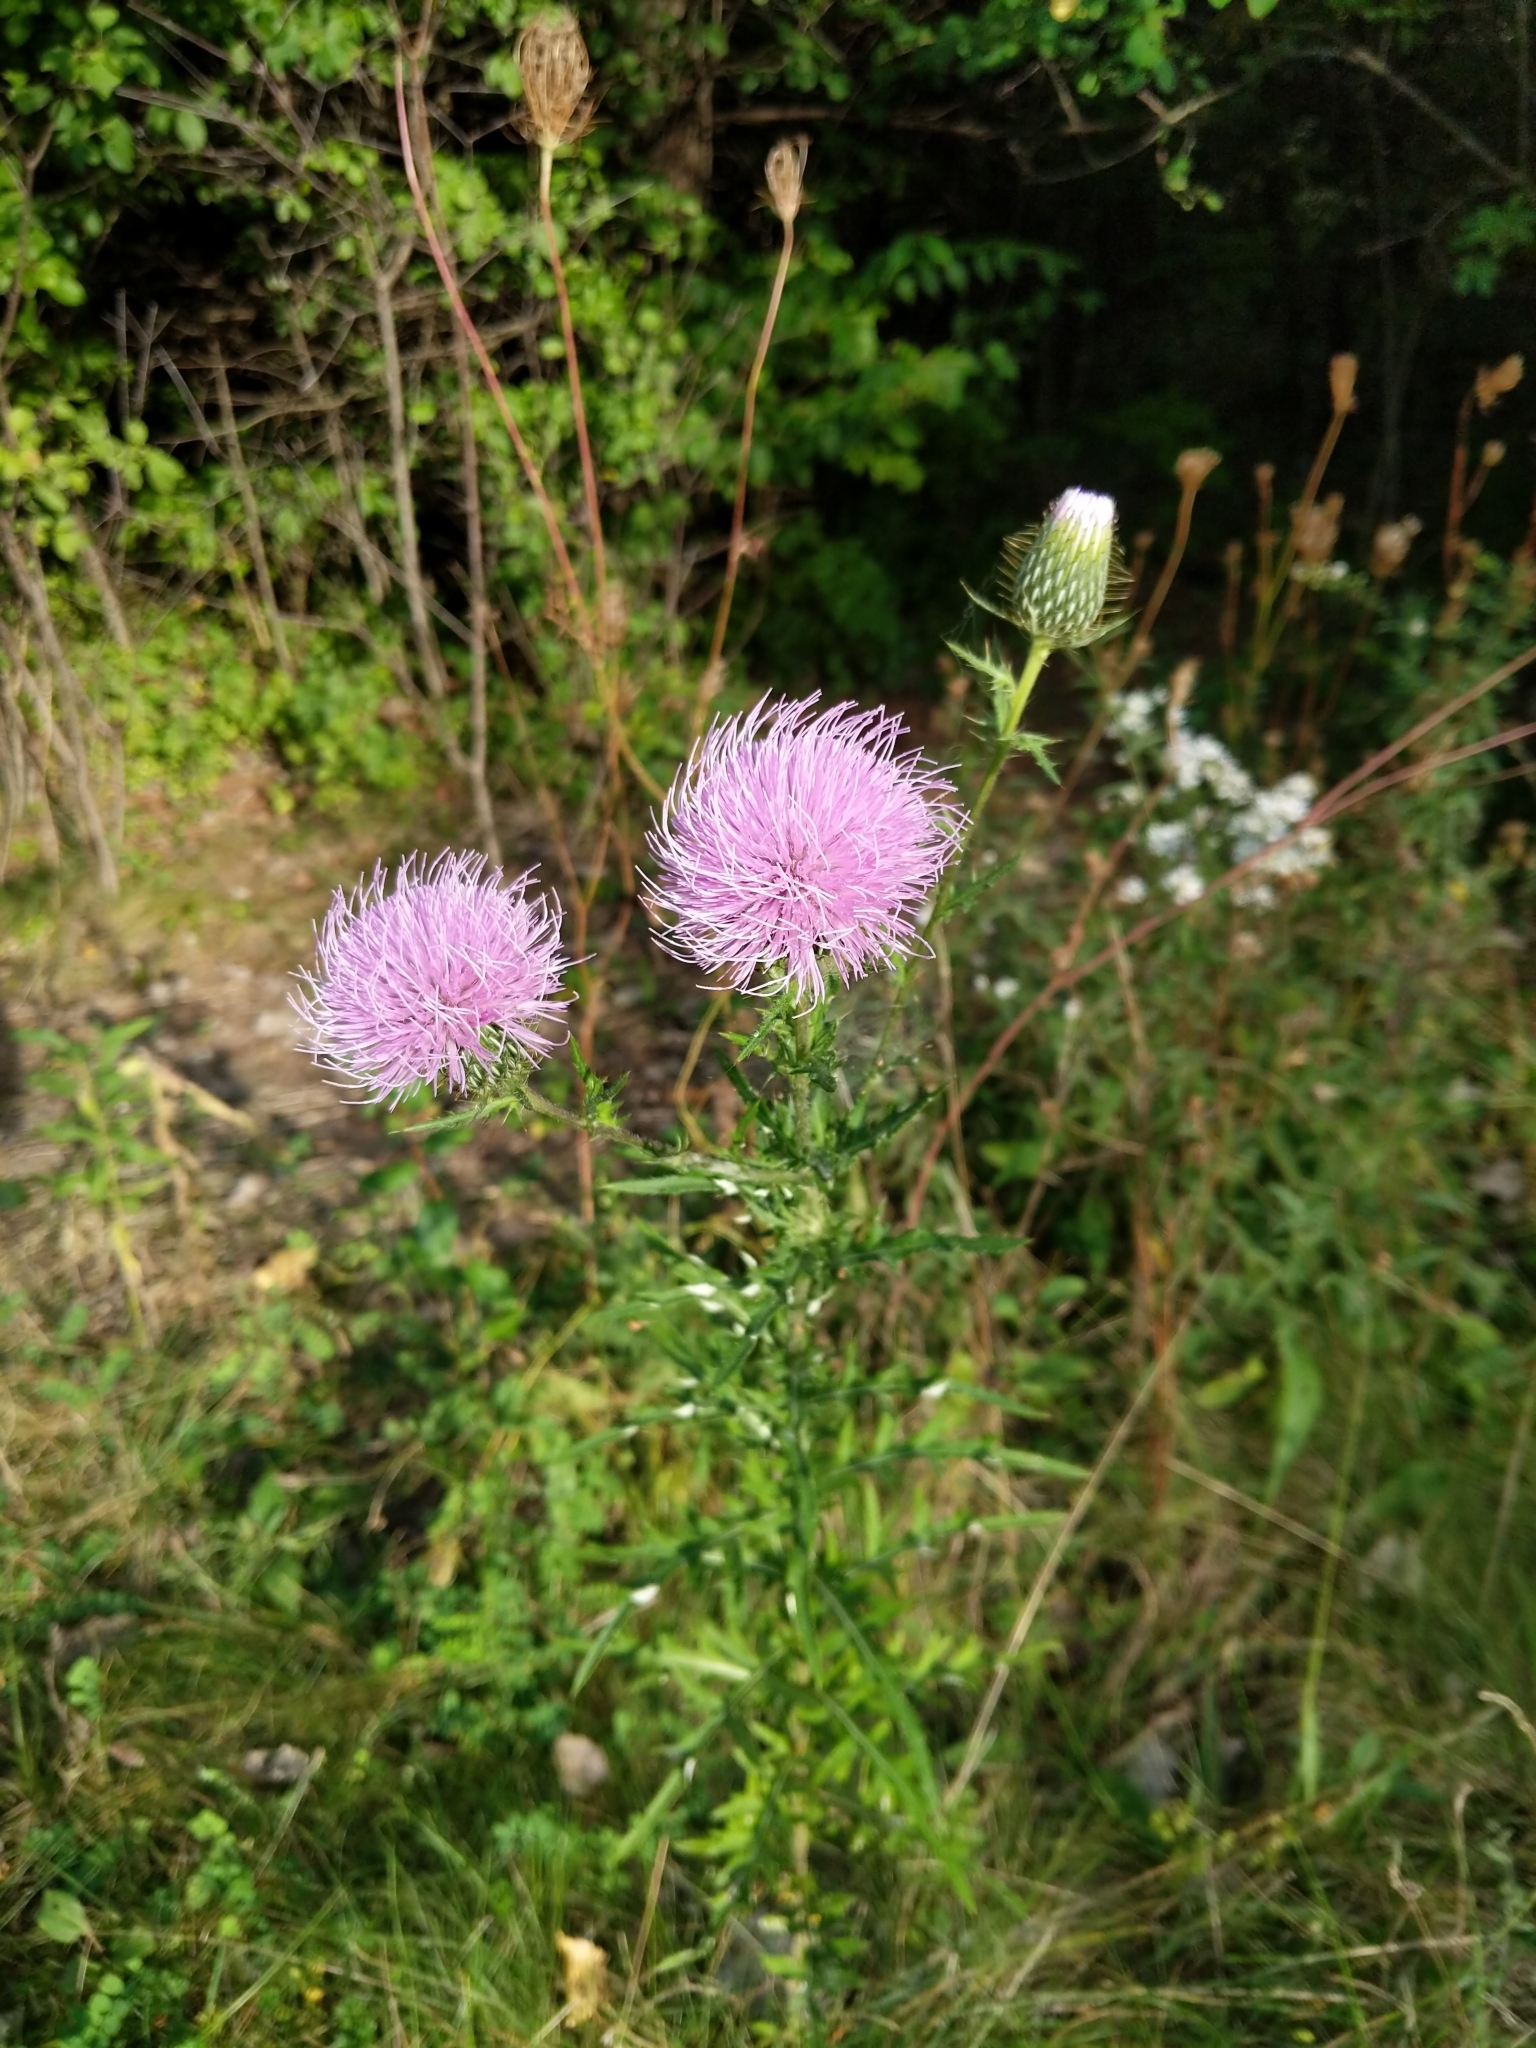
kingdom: Plantae
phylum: Tracheophyta
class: Magnoliopsida
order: Asterales
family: Asteraceae
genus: Cirsium
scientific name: Cirsium discolor
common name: Field thistle
